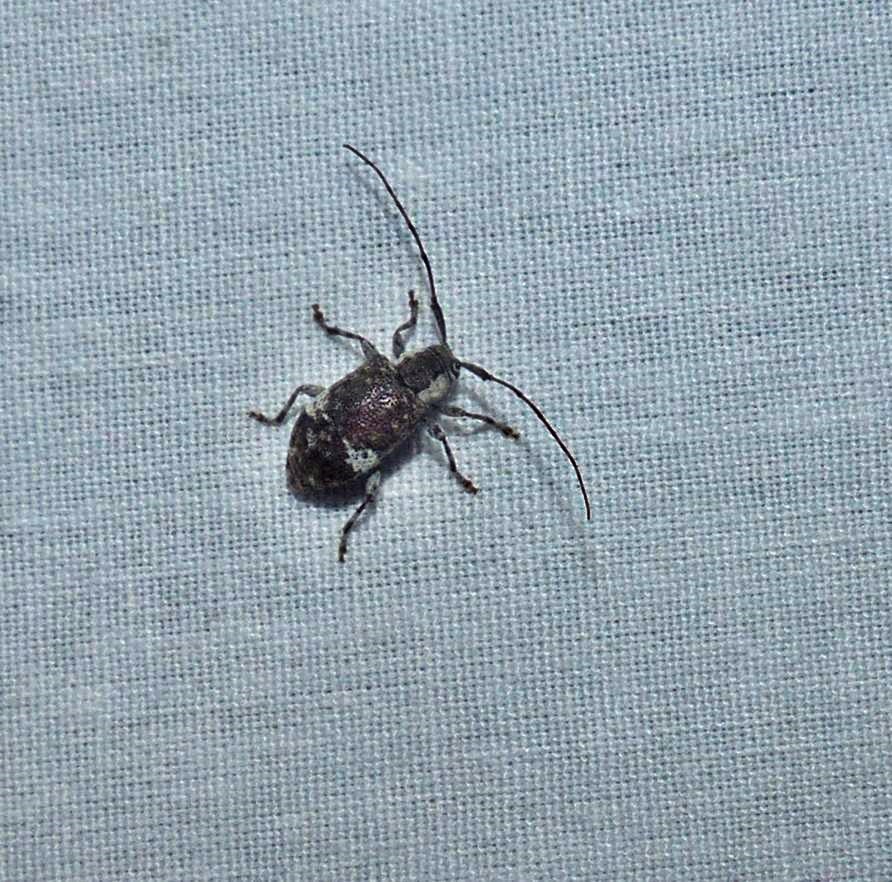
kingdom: Animalia
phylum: Arthropoda
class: Insecta
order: Coleoptera
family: Cerambycidae
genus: Astylopsis
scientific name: Astylopsis macula
